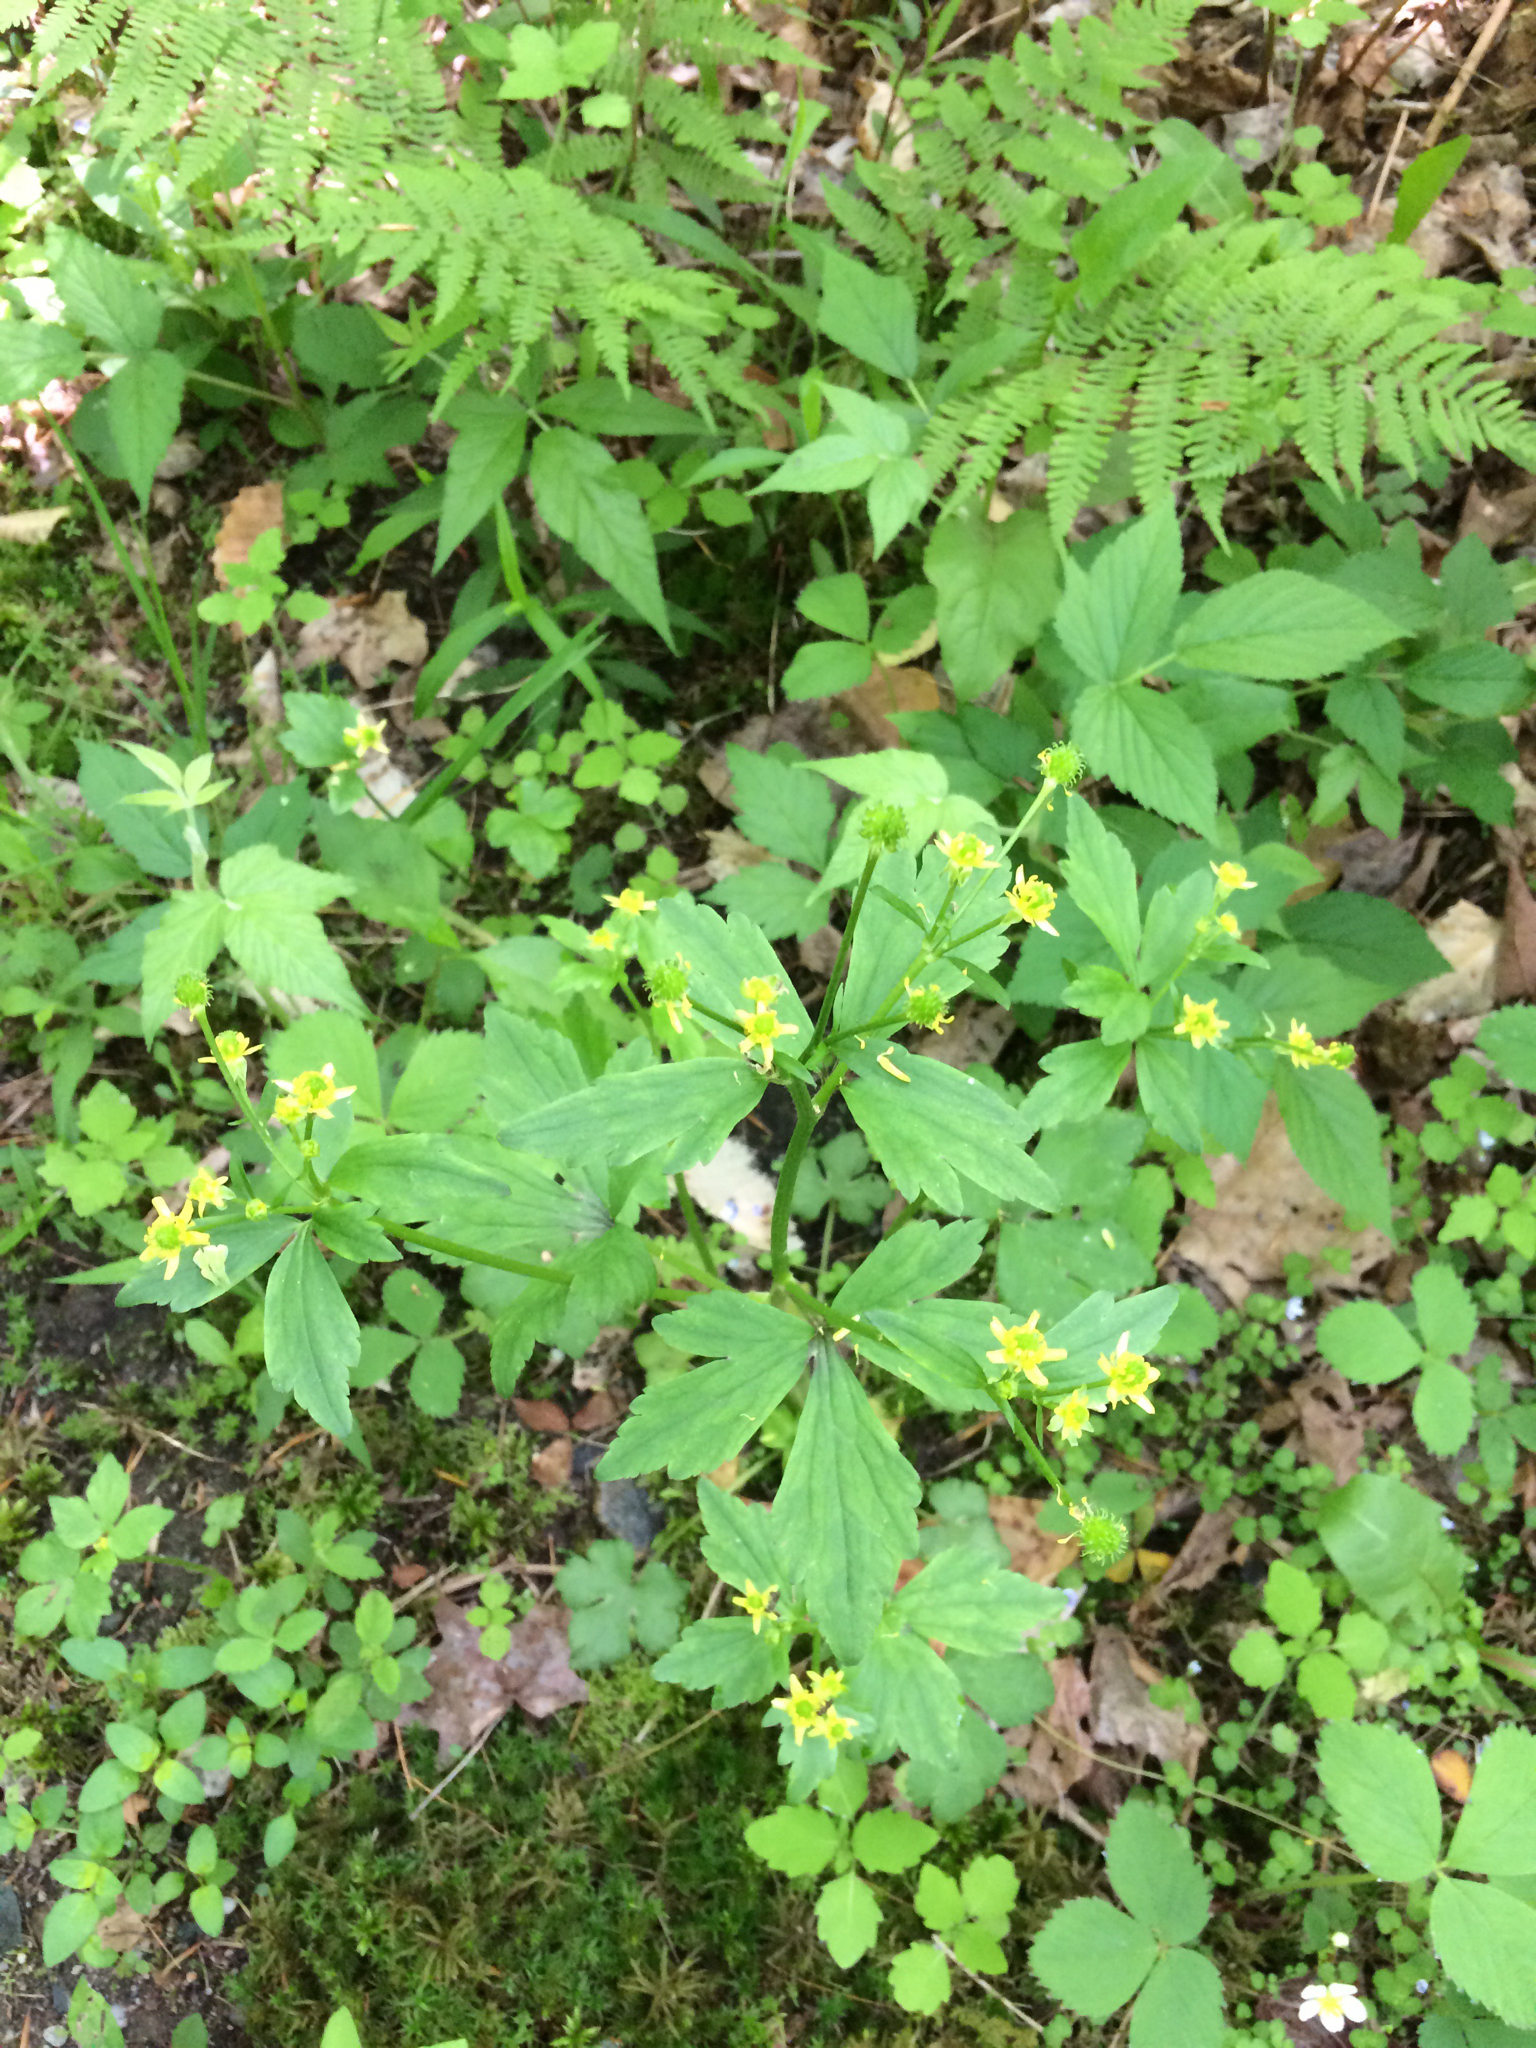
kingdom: Plantae
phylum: Tracheophyta
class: Magnoliopsida
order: Ranunculales
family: Ranunculaceae
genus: Ranunculus
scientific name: Ranunculus abortivus
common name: Early wood buttercup
